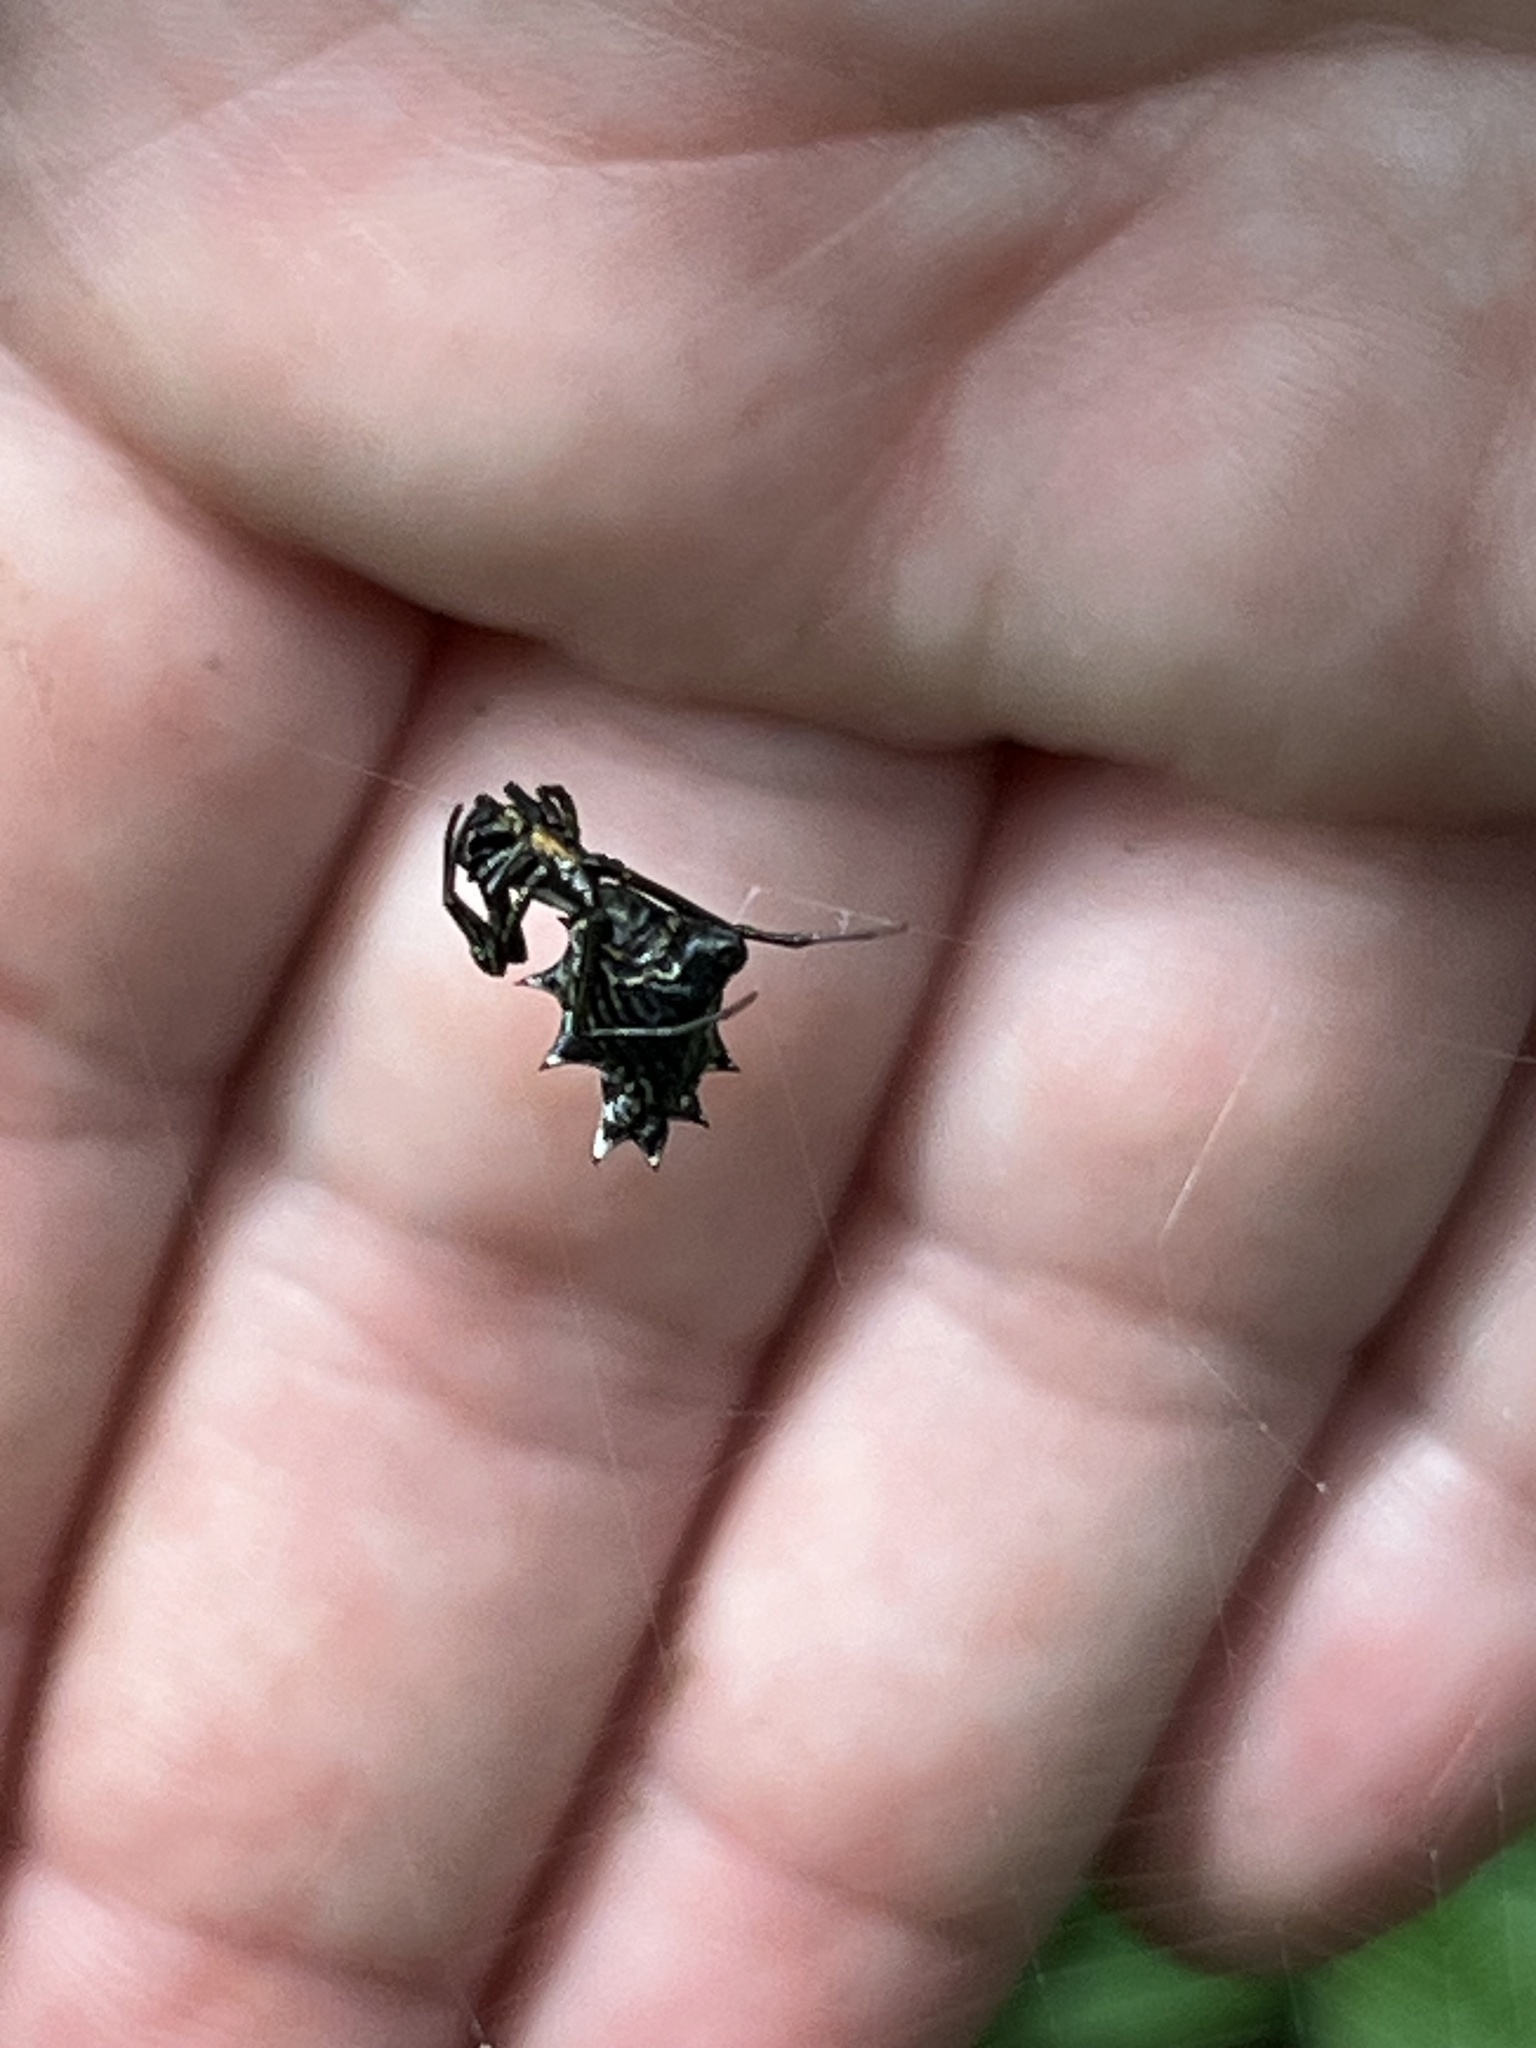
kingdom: Animalia
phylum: Arthropoda
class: Arachnida
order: Araneae
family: Araneidae
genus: Micrathena
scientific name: Micrathena gracilis
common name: Orb weavers
